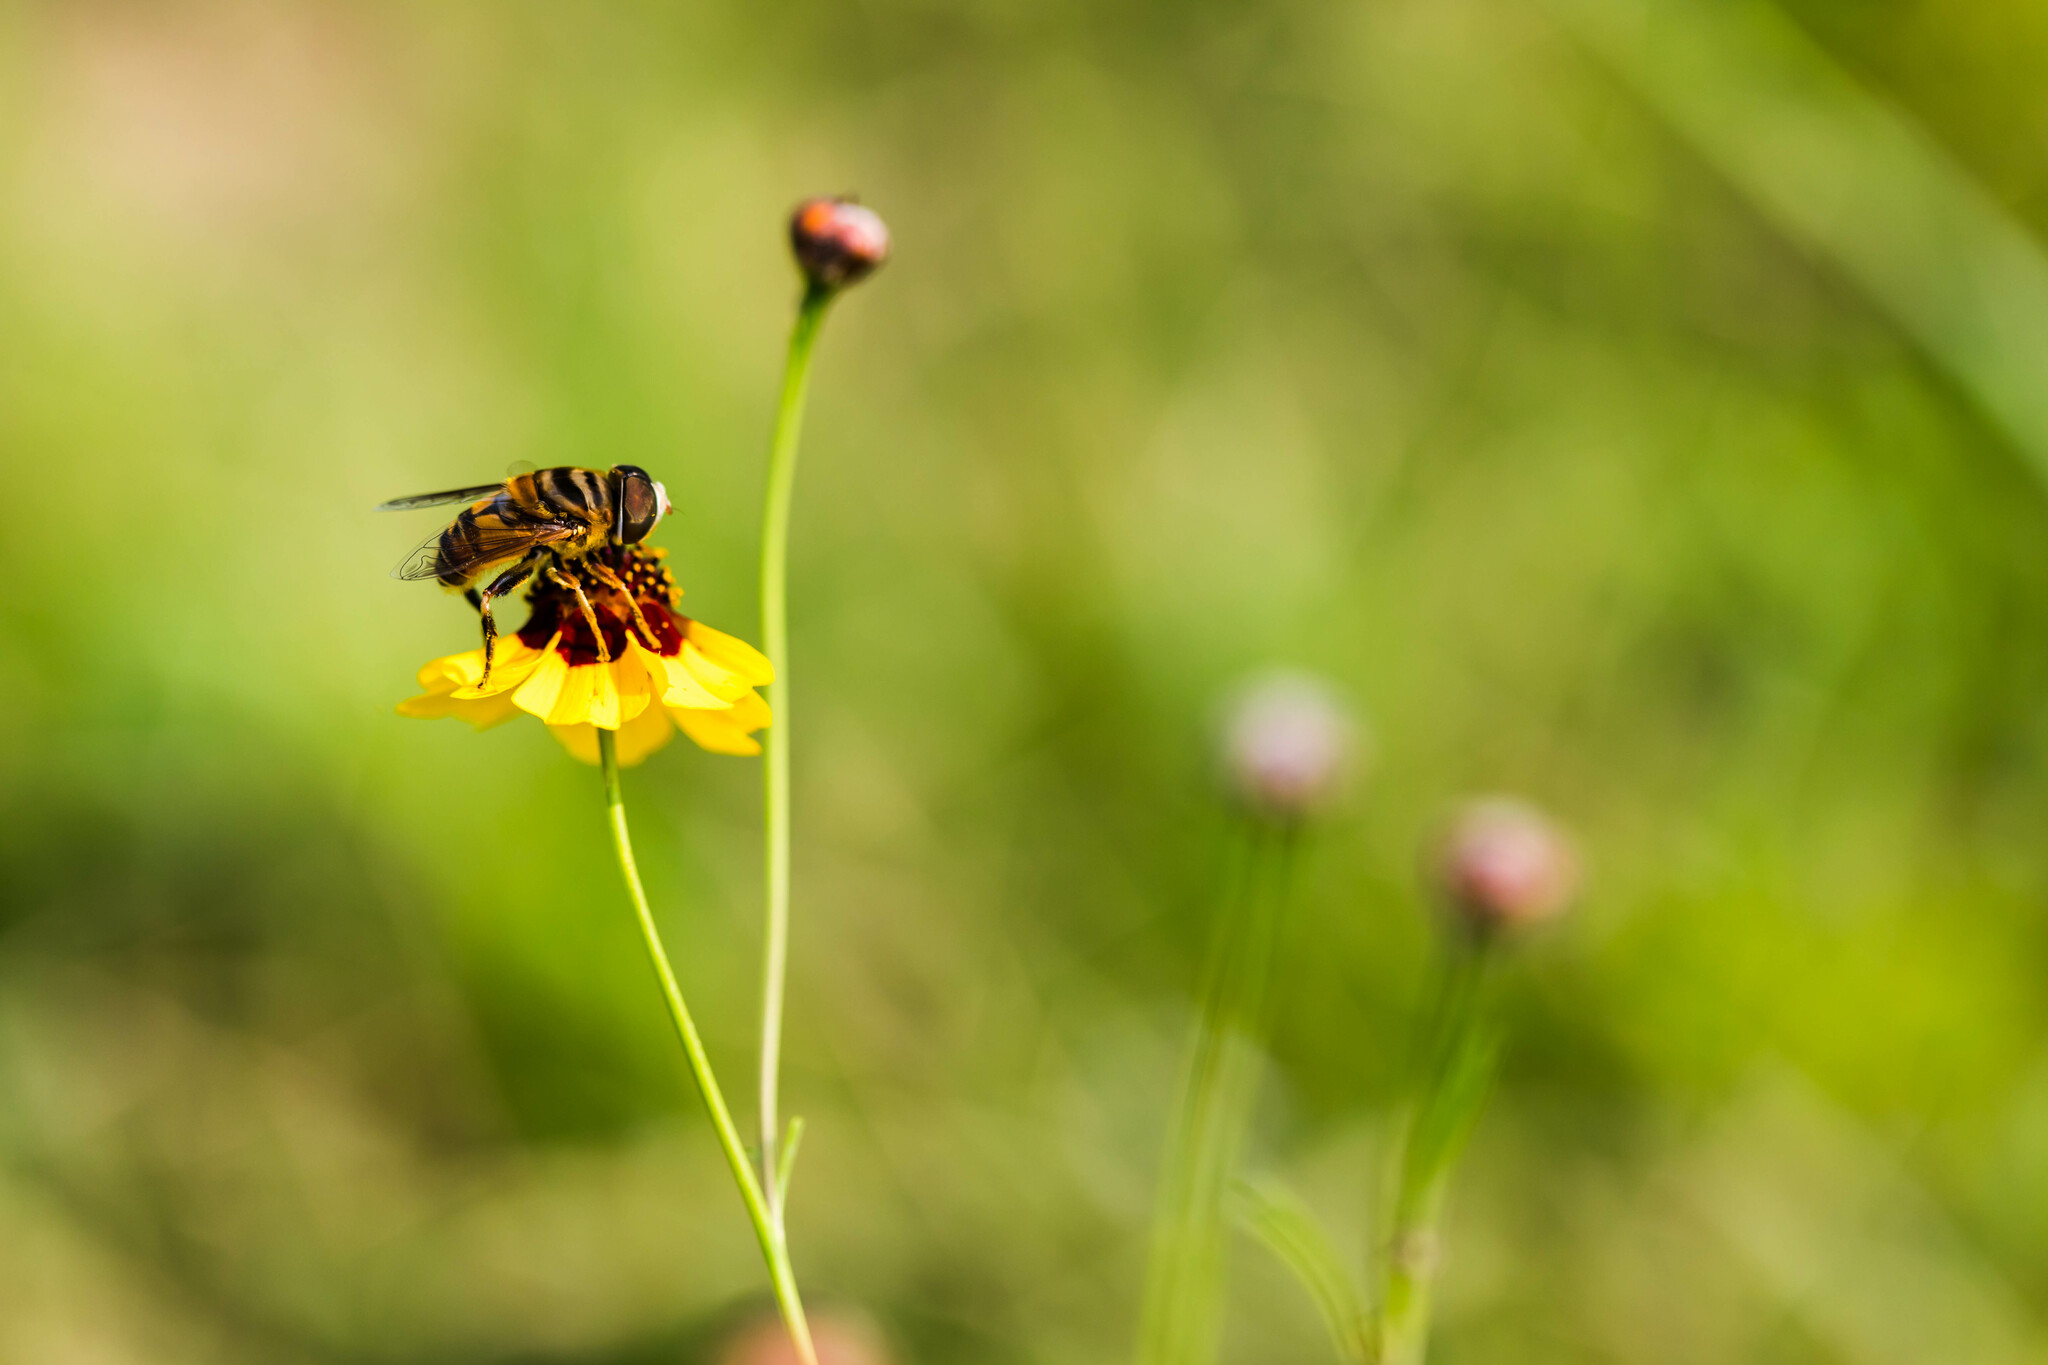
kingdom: Animalia
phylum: Arthropoda
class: Insecta
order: Diptera
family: Syrphidae
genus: Palpada
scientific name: Palpada vinetorum
